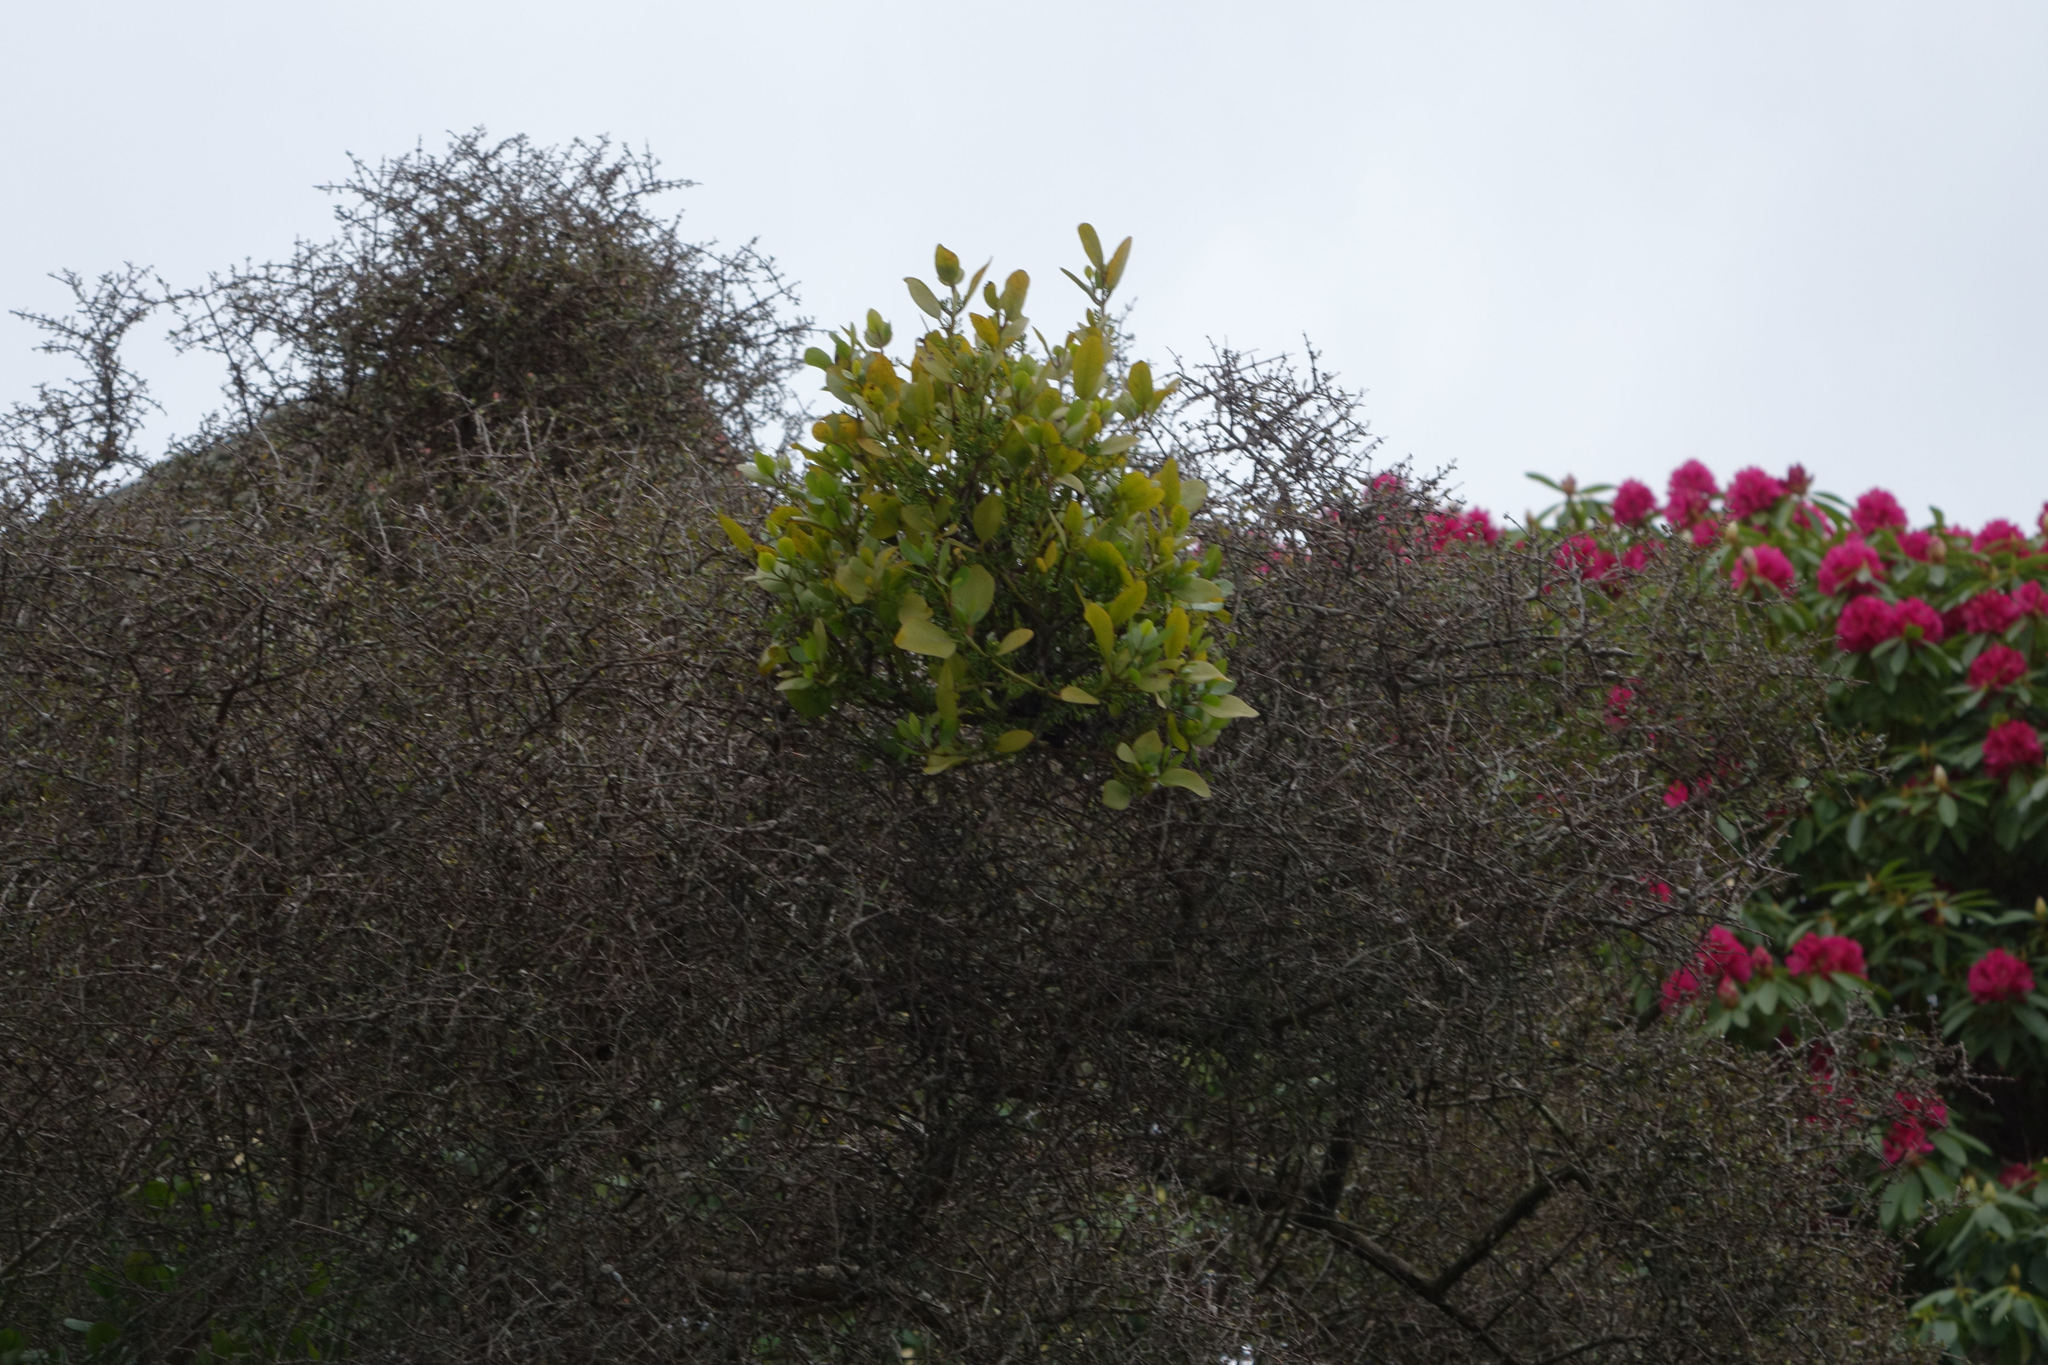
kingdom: Plantae
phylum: Tracheophyta
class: Magnoliopsida
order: Santalales
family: Loranthaceae
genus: Ileostylus
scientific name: Ileostylus micranthus
